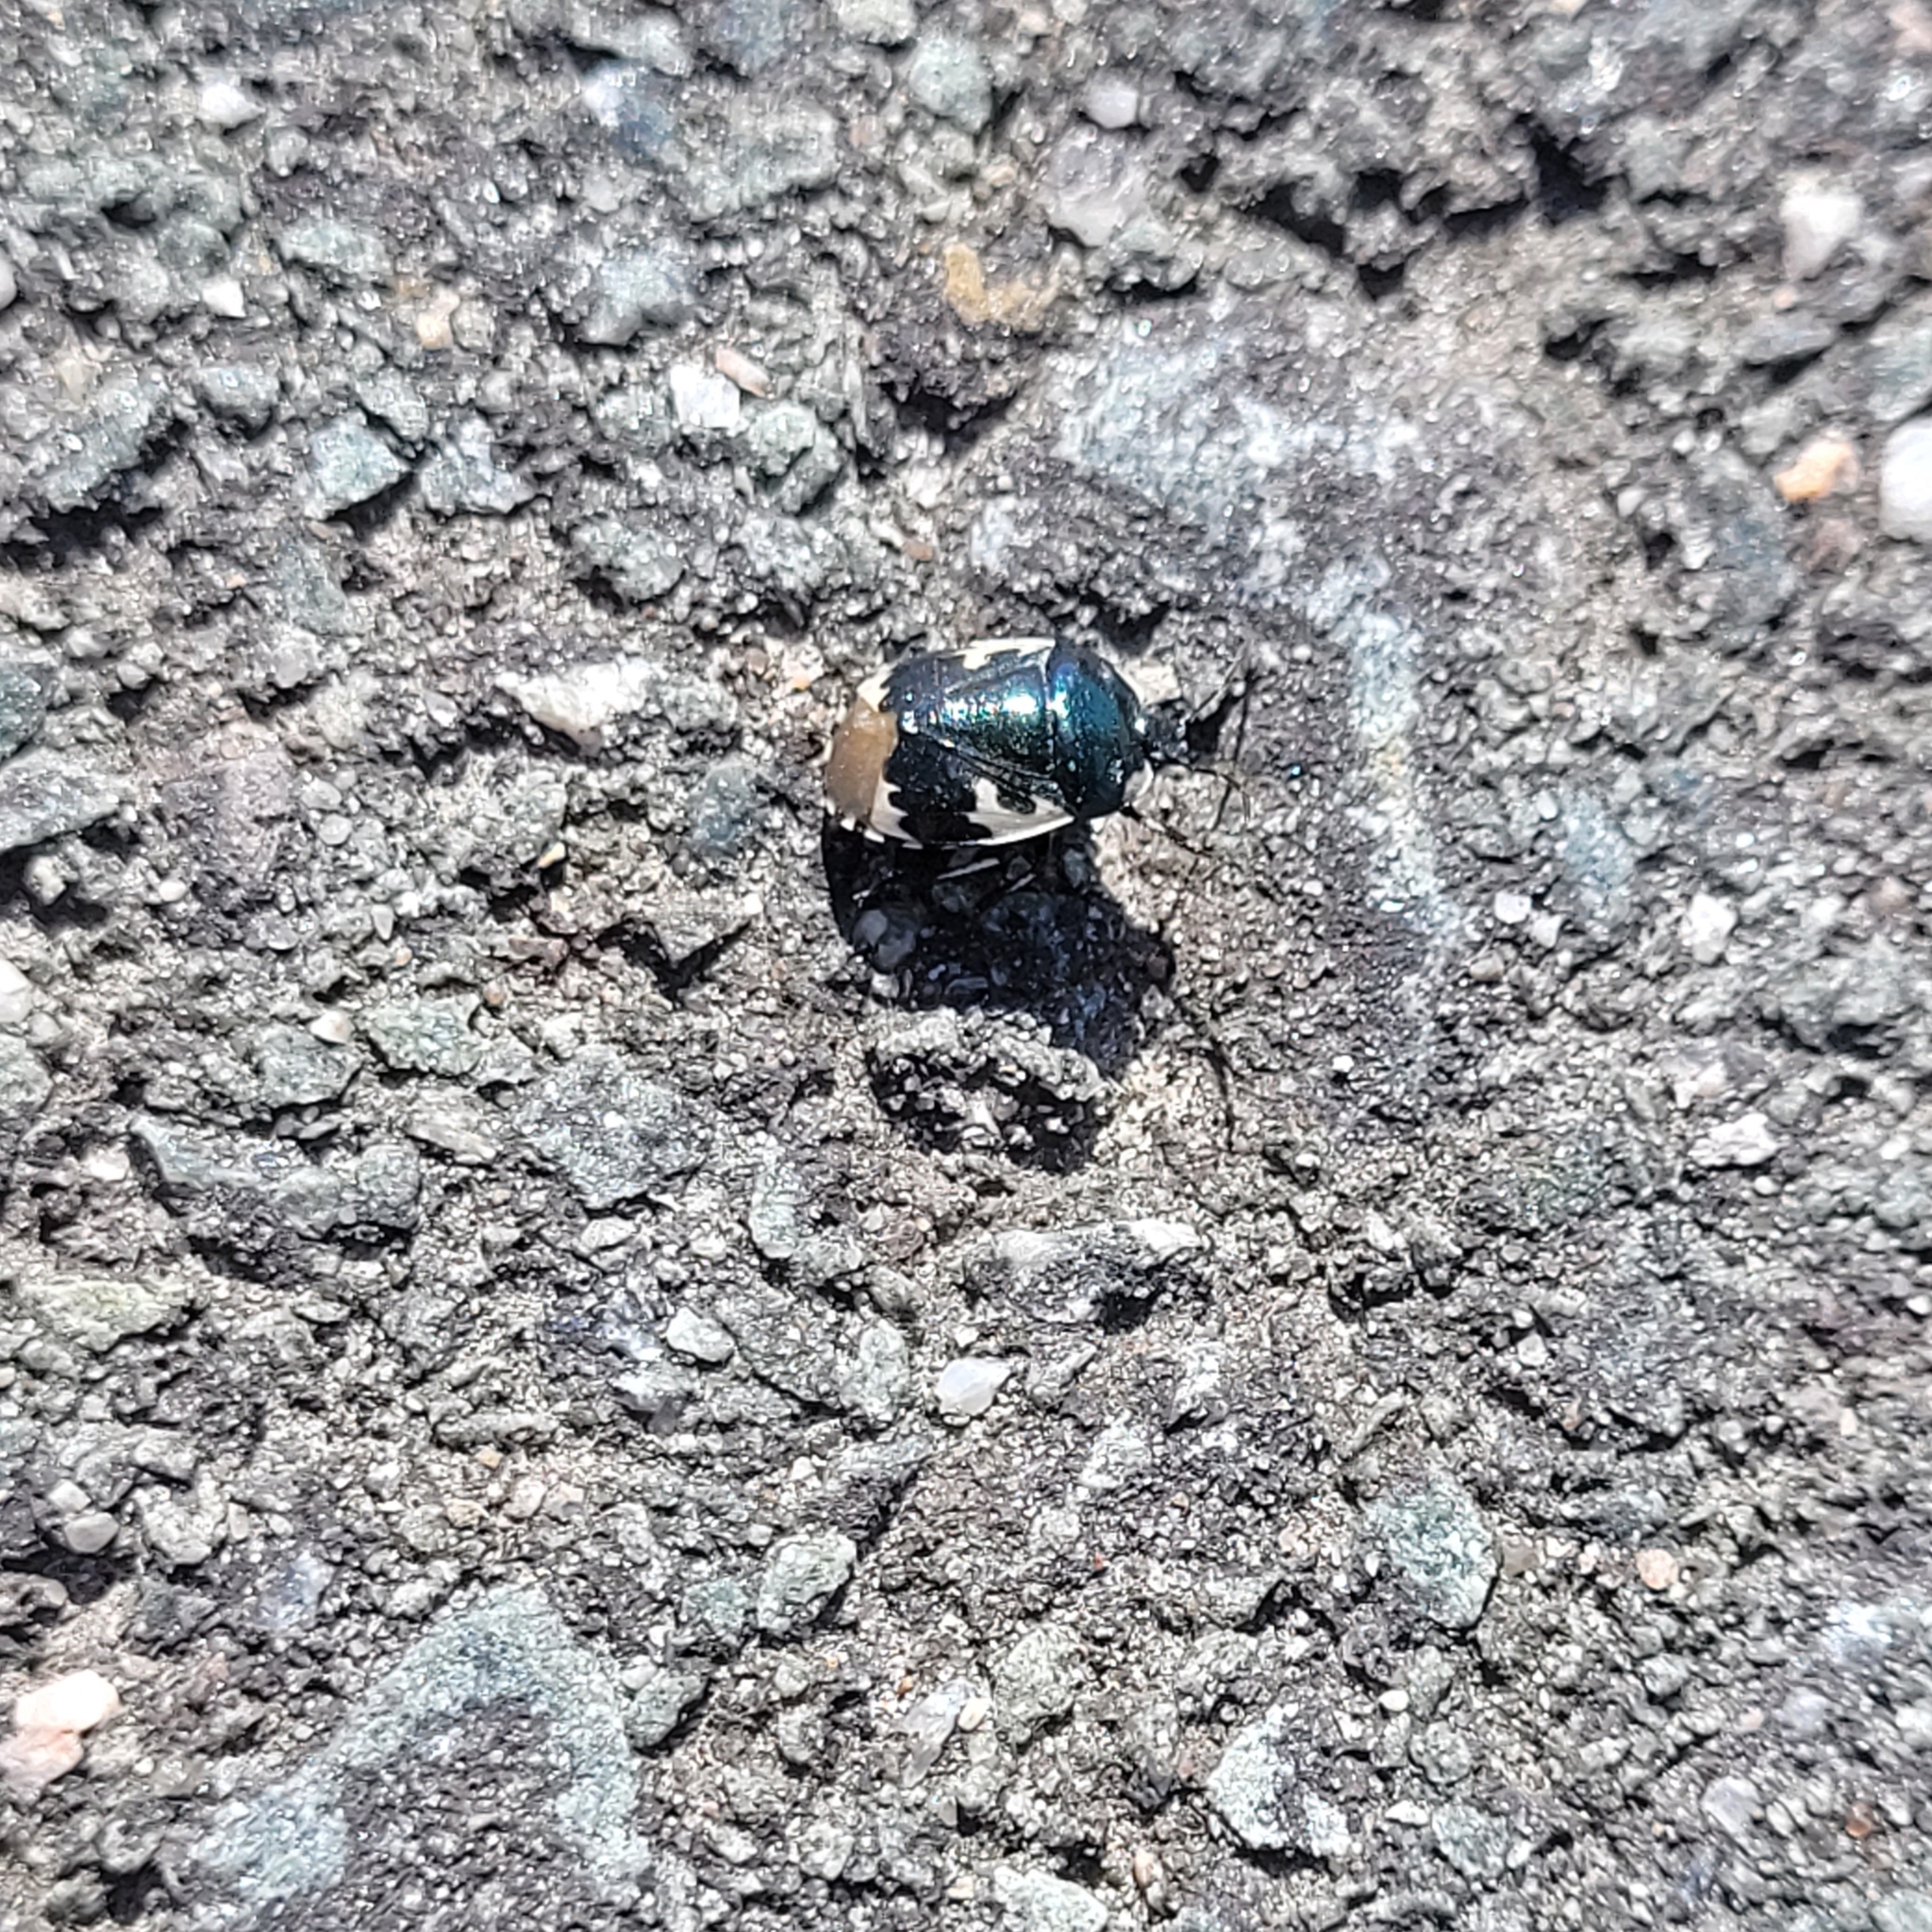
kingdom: Animalia
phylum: Arthropoda
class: Insecta
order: Hemiptera
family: Cydnidae
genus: Tritomegas
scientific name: Tritomegas bicolor
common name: Pied shieldbug
